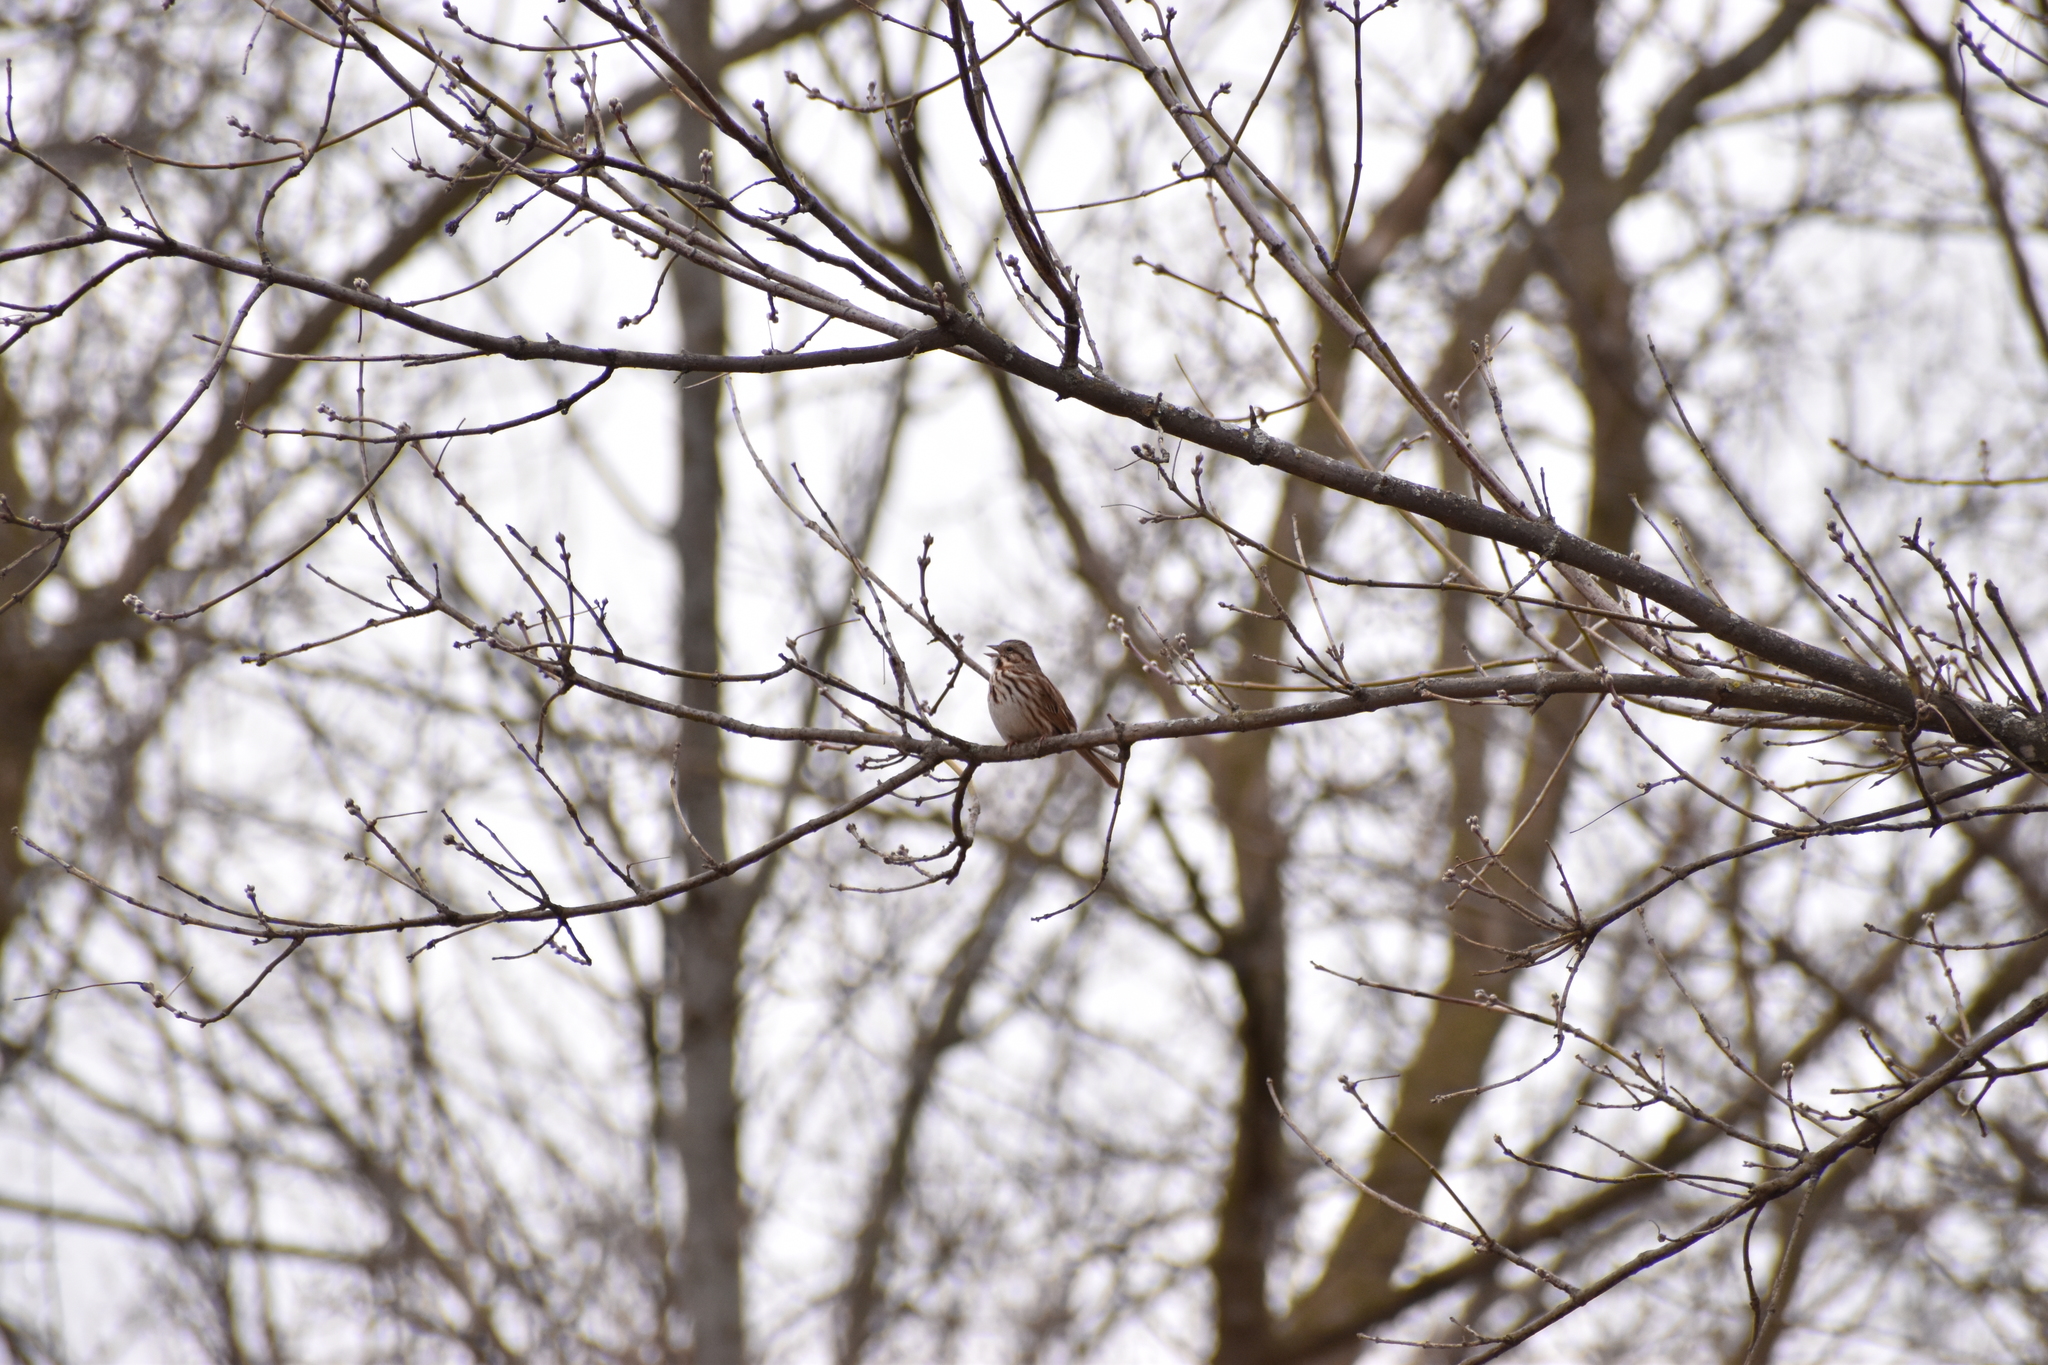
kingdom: Animalia
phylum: Chordata
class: Aves
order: Passeriformes
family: Passerellidae
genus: Melospiza
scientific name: Melospiza melodia
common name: Song sparrow
